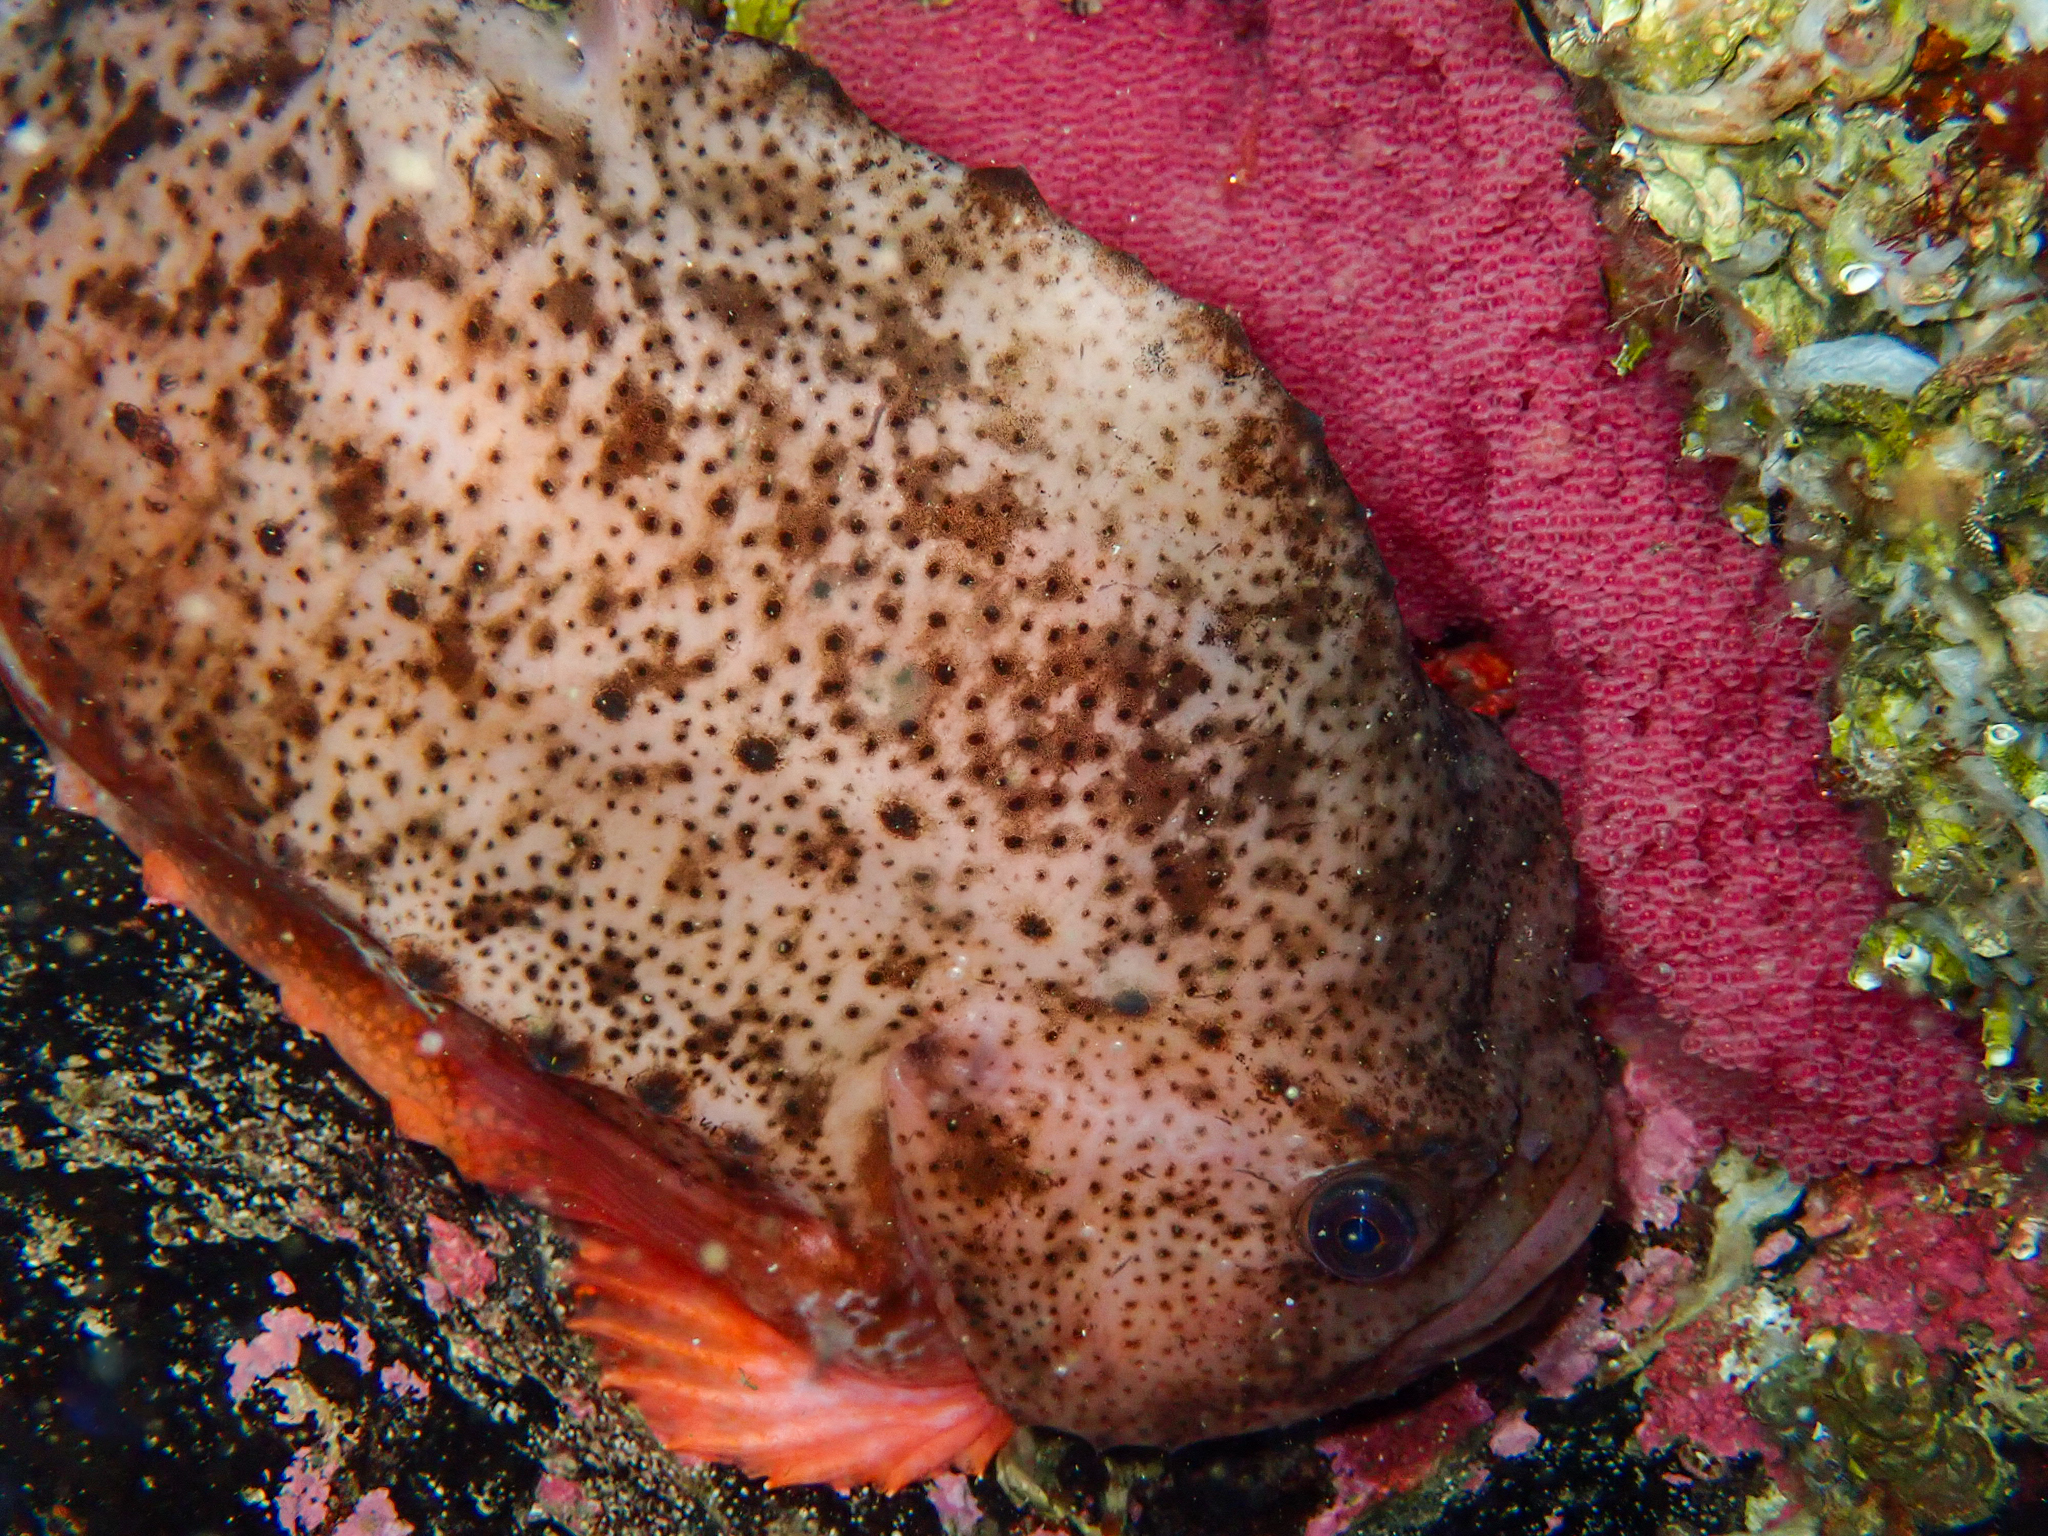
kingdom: Animalia
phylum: Chordata
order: Scorpaeniformes
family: Cyclopteridae
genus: Cyclopterus
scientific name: Cyclopterus lumpus
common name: Lumpsucker
